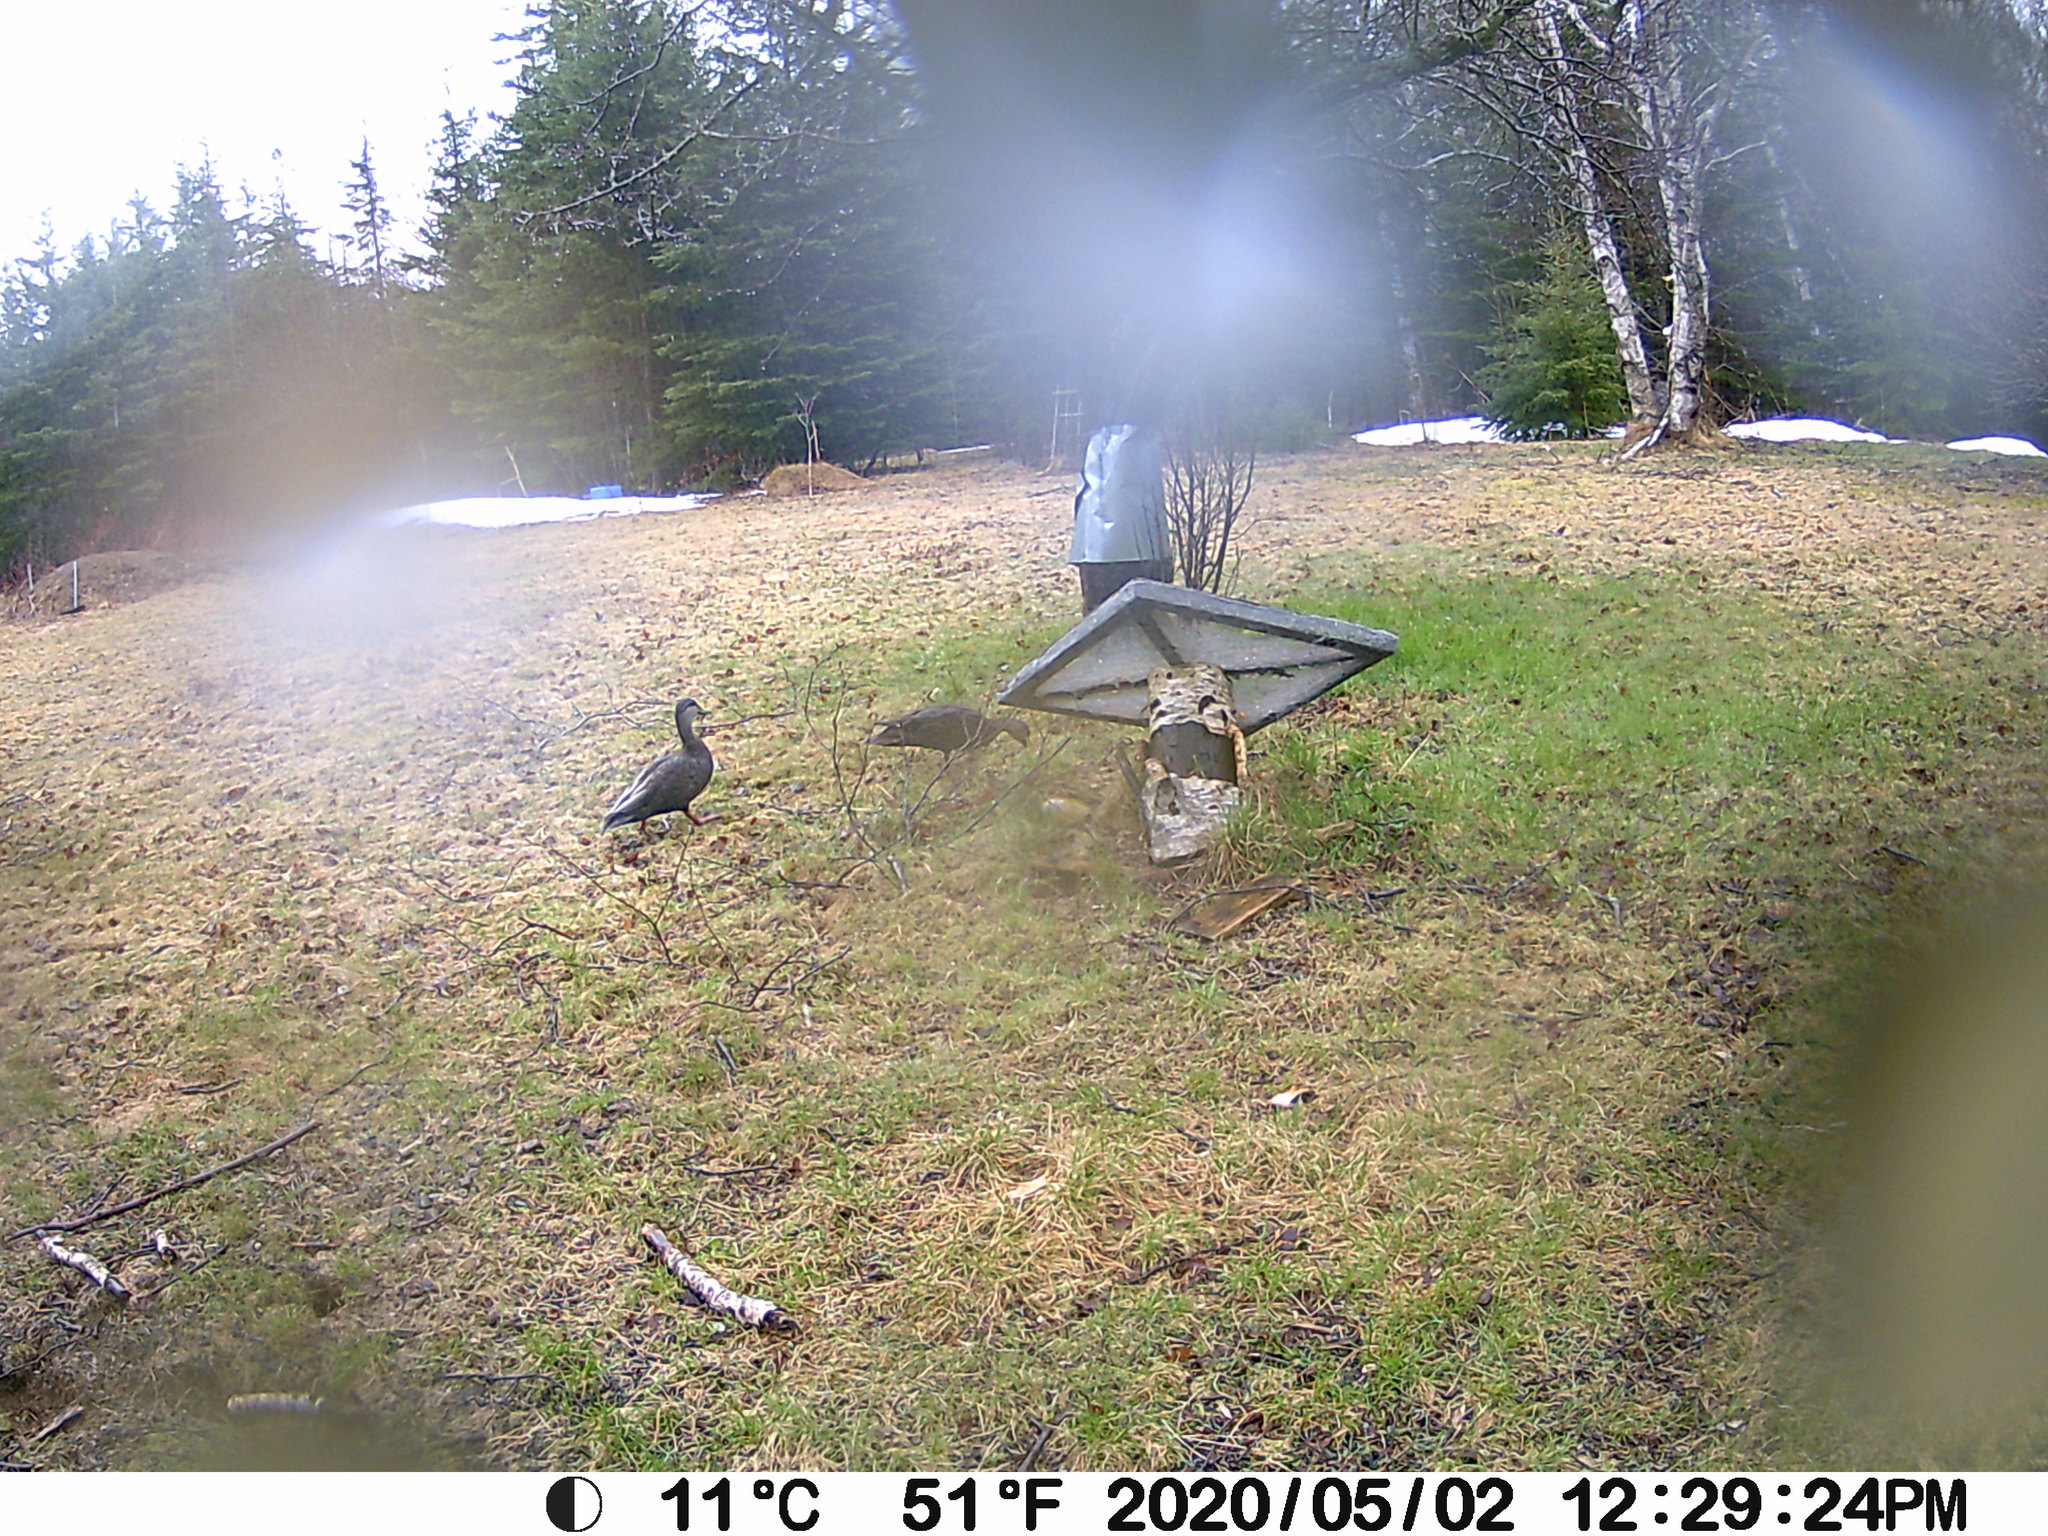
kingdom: Animalia
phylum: Chordata
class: Aves
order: Anseriformes
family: Anatidae
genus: Anas
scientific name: Anas rubripes
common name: American black duck
